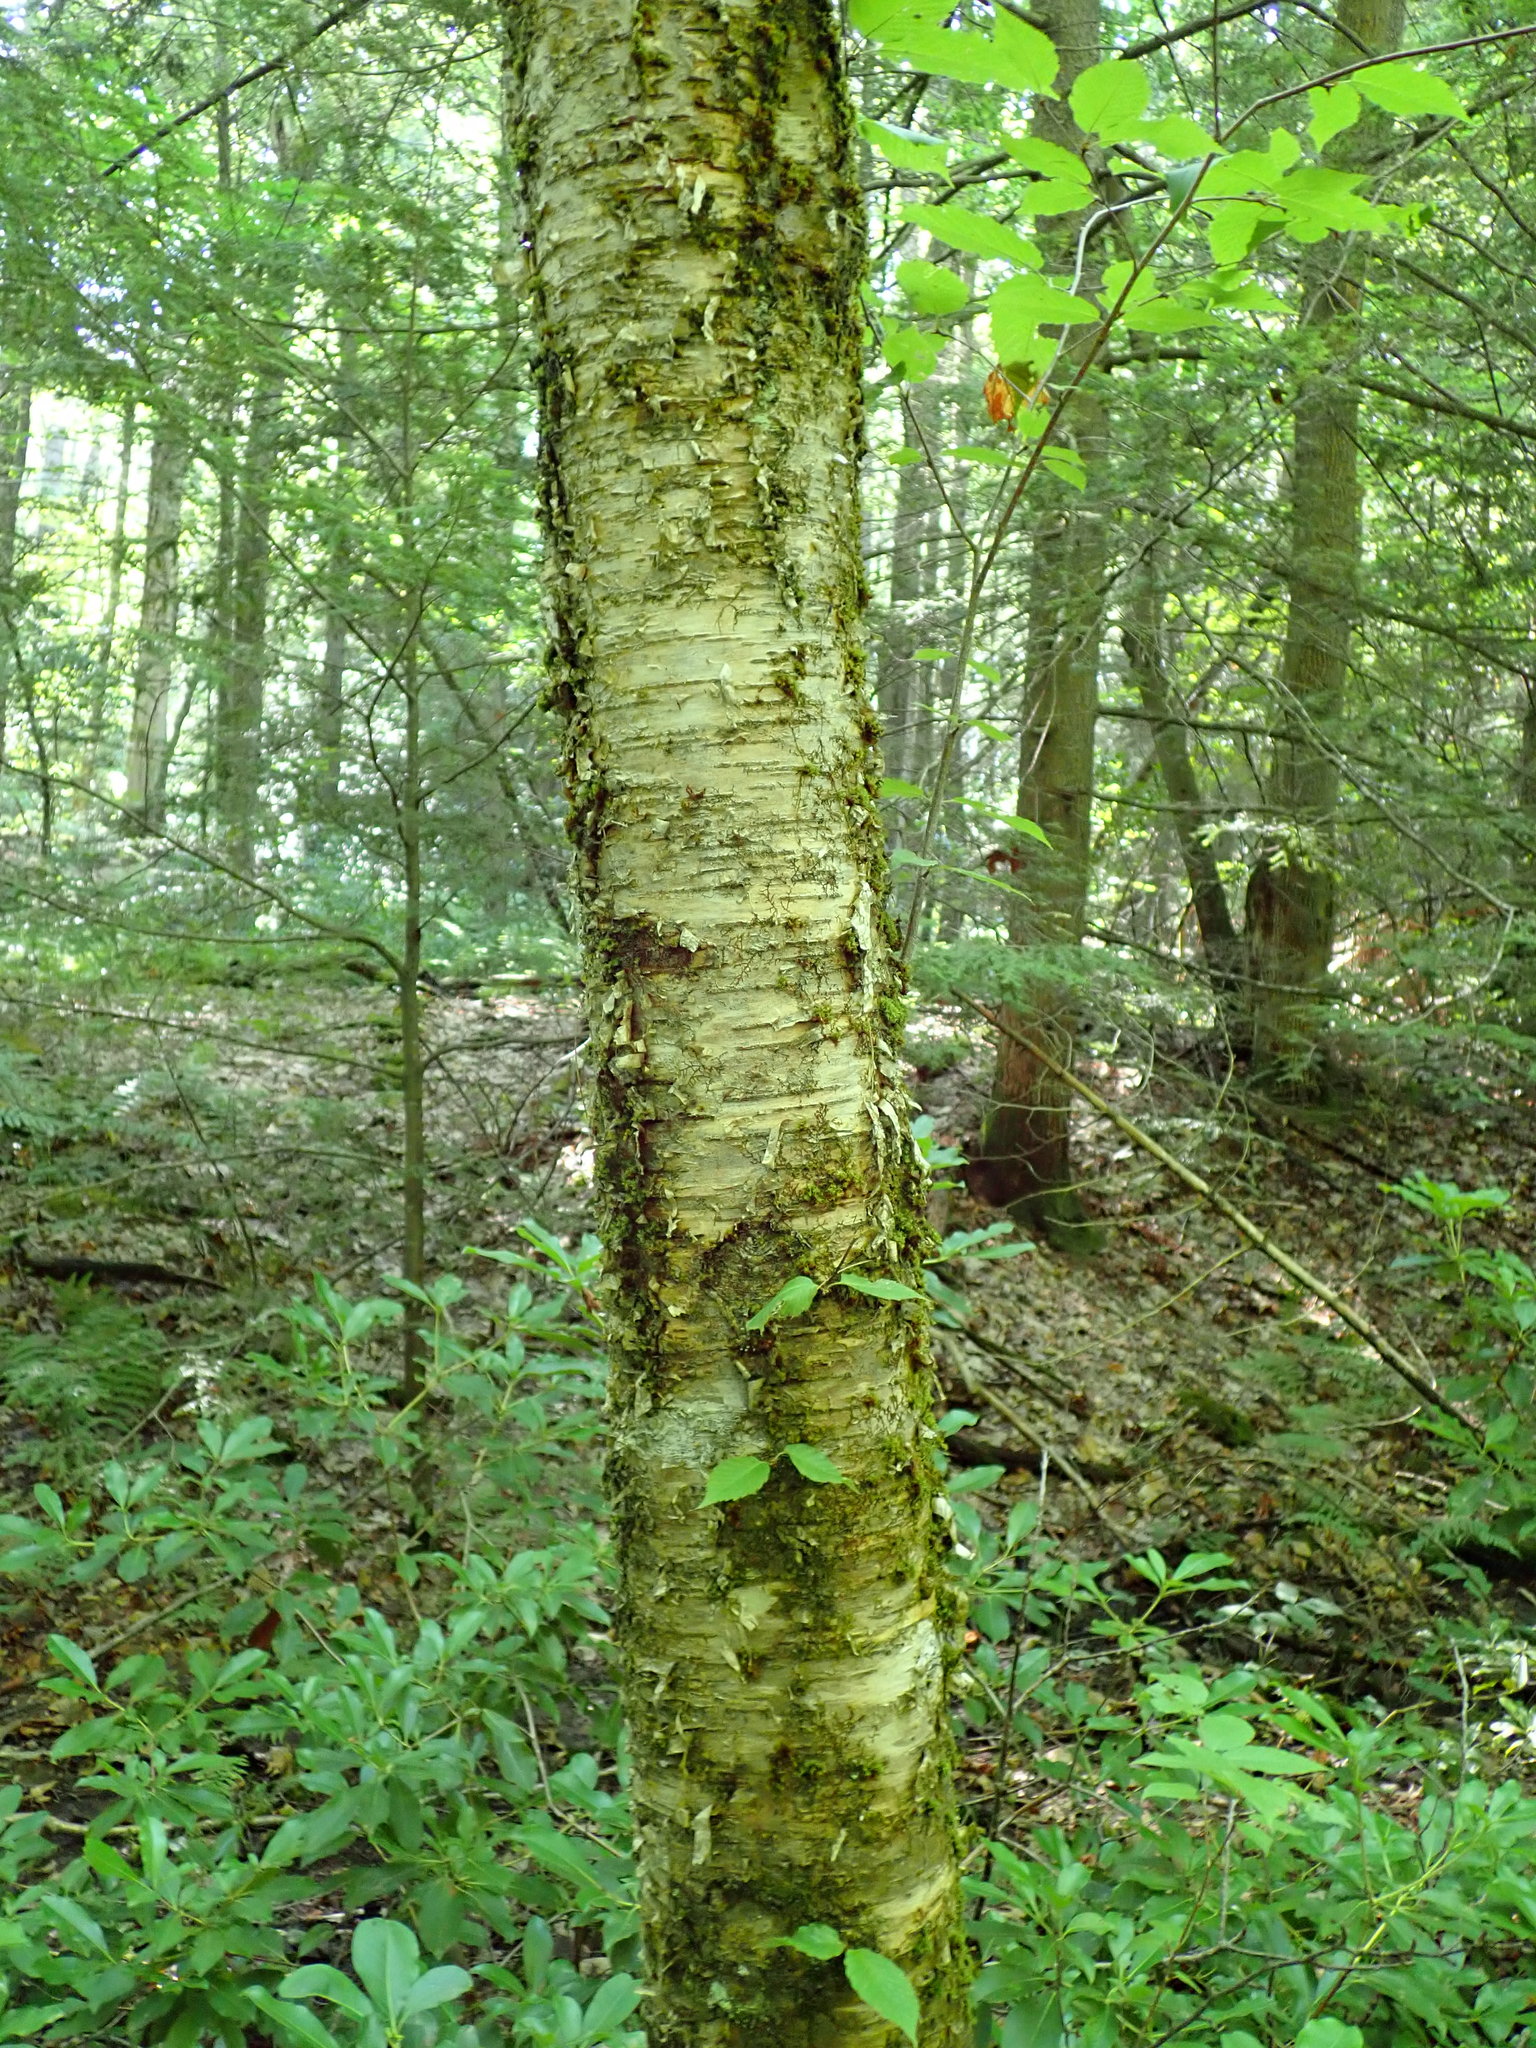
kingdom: Plantae
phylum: Tracheophyta
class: Magnoliopsida
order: Fagales
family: Betulaceae
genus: Betula
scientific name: Betula alleghaniensis
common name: Yellow birch
